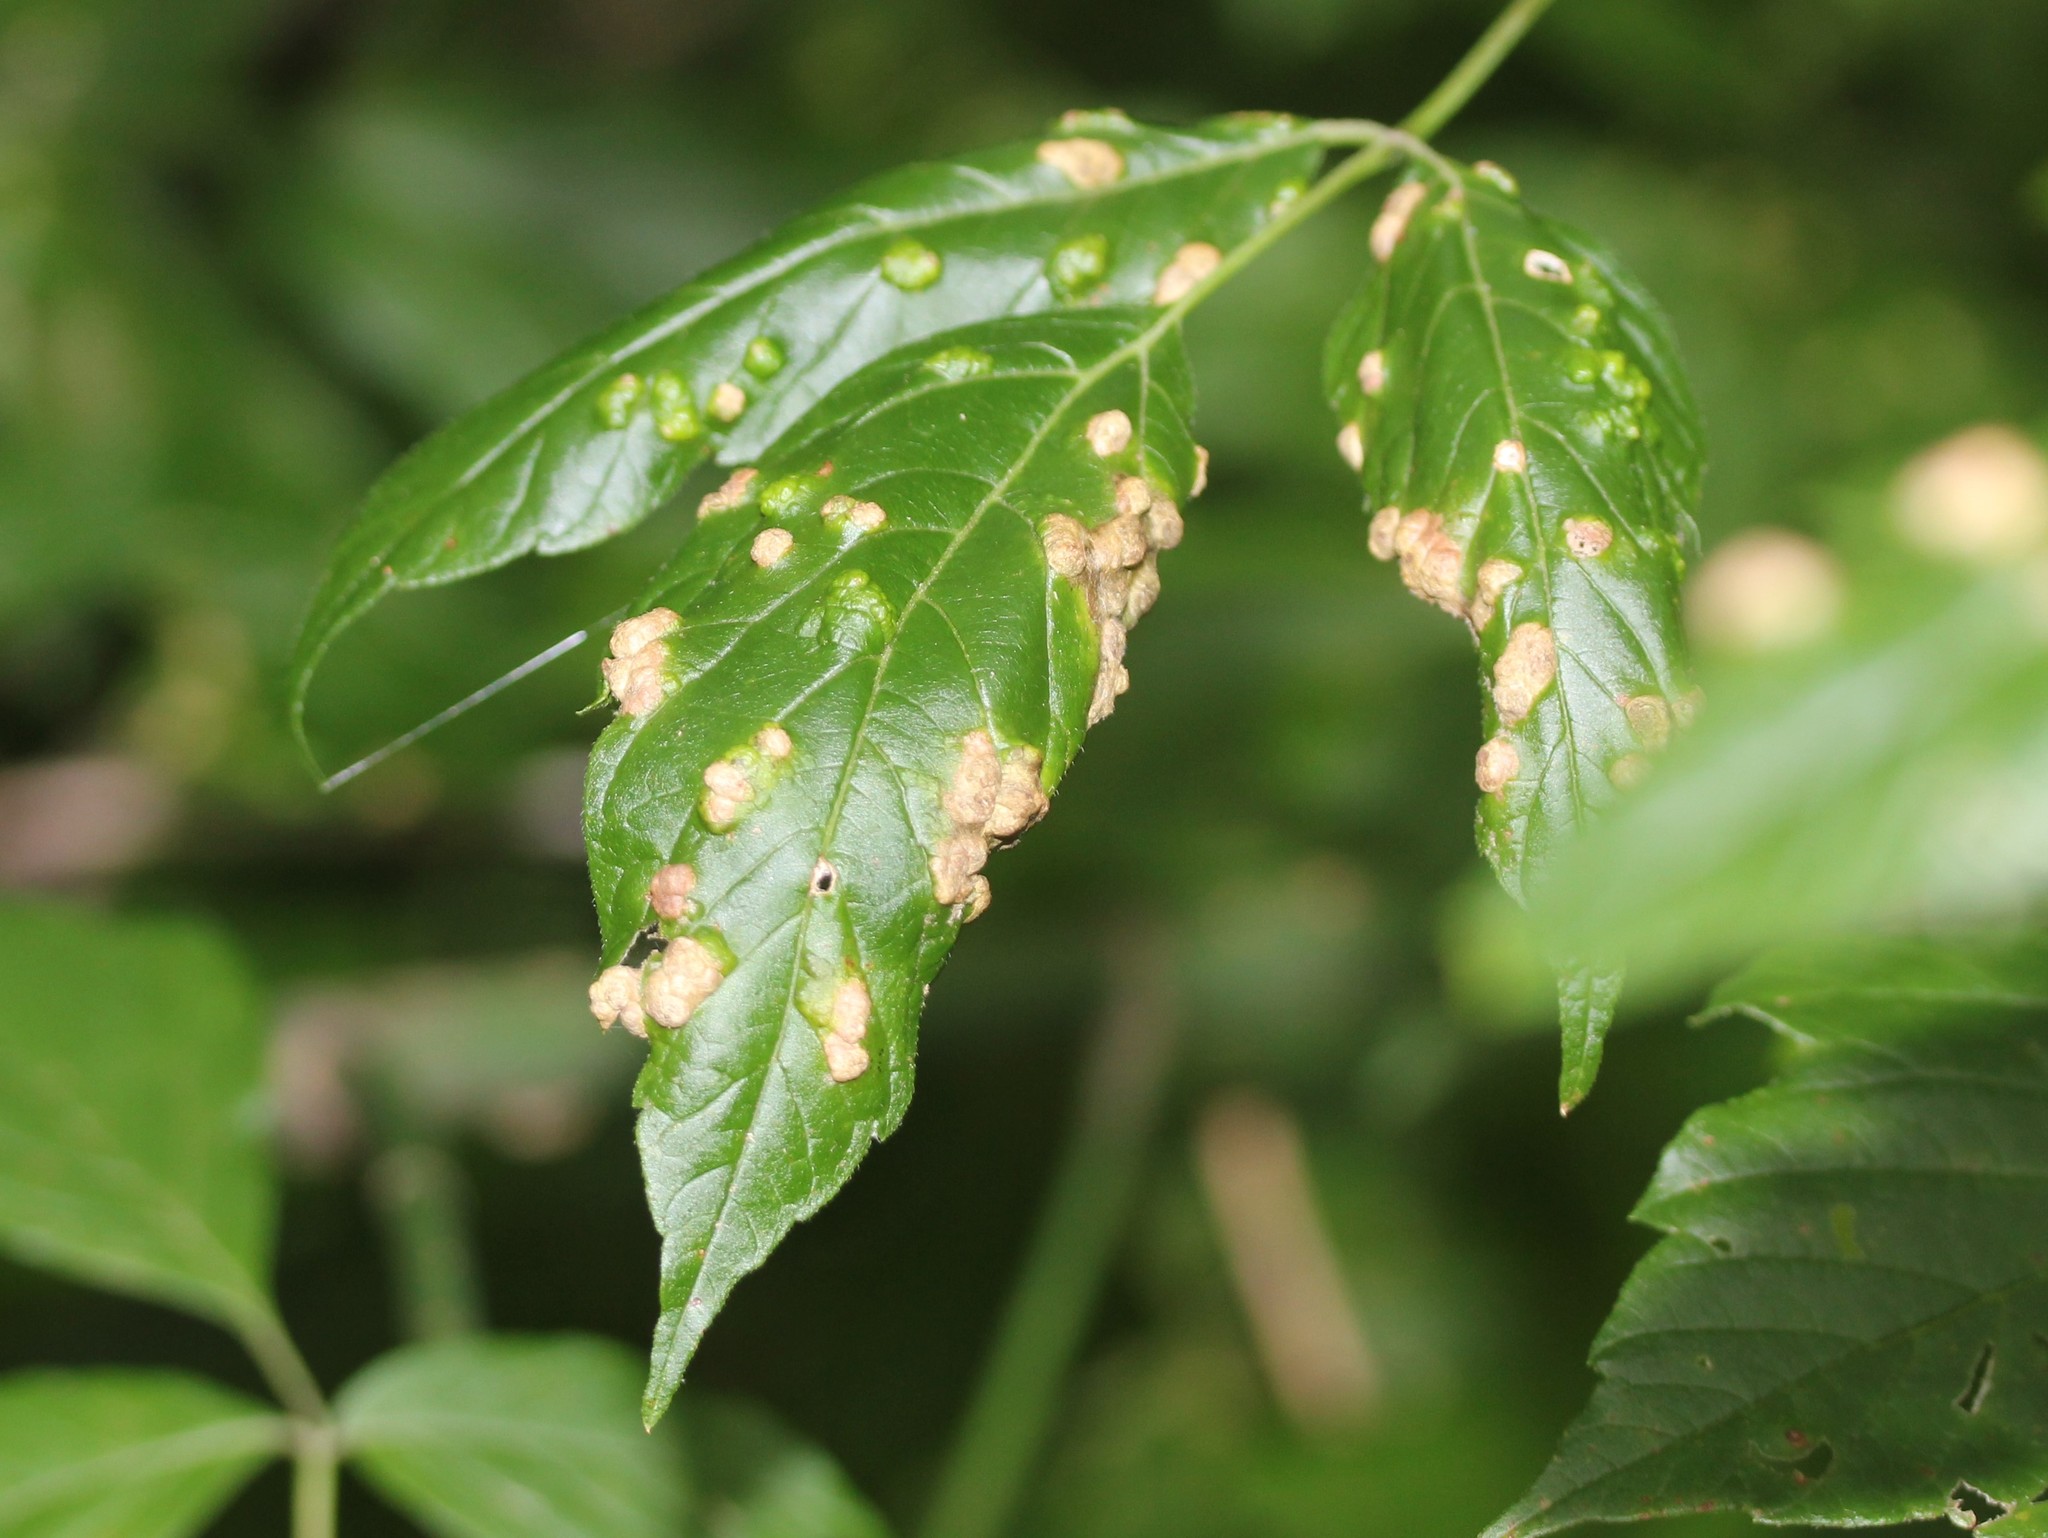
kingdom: Animalia
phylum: Arthropoda
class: Arachnida
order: Trombidiformes
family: Eriophyidae
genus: Aceria
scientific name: Aceria
